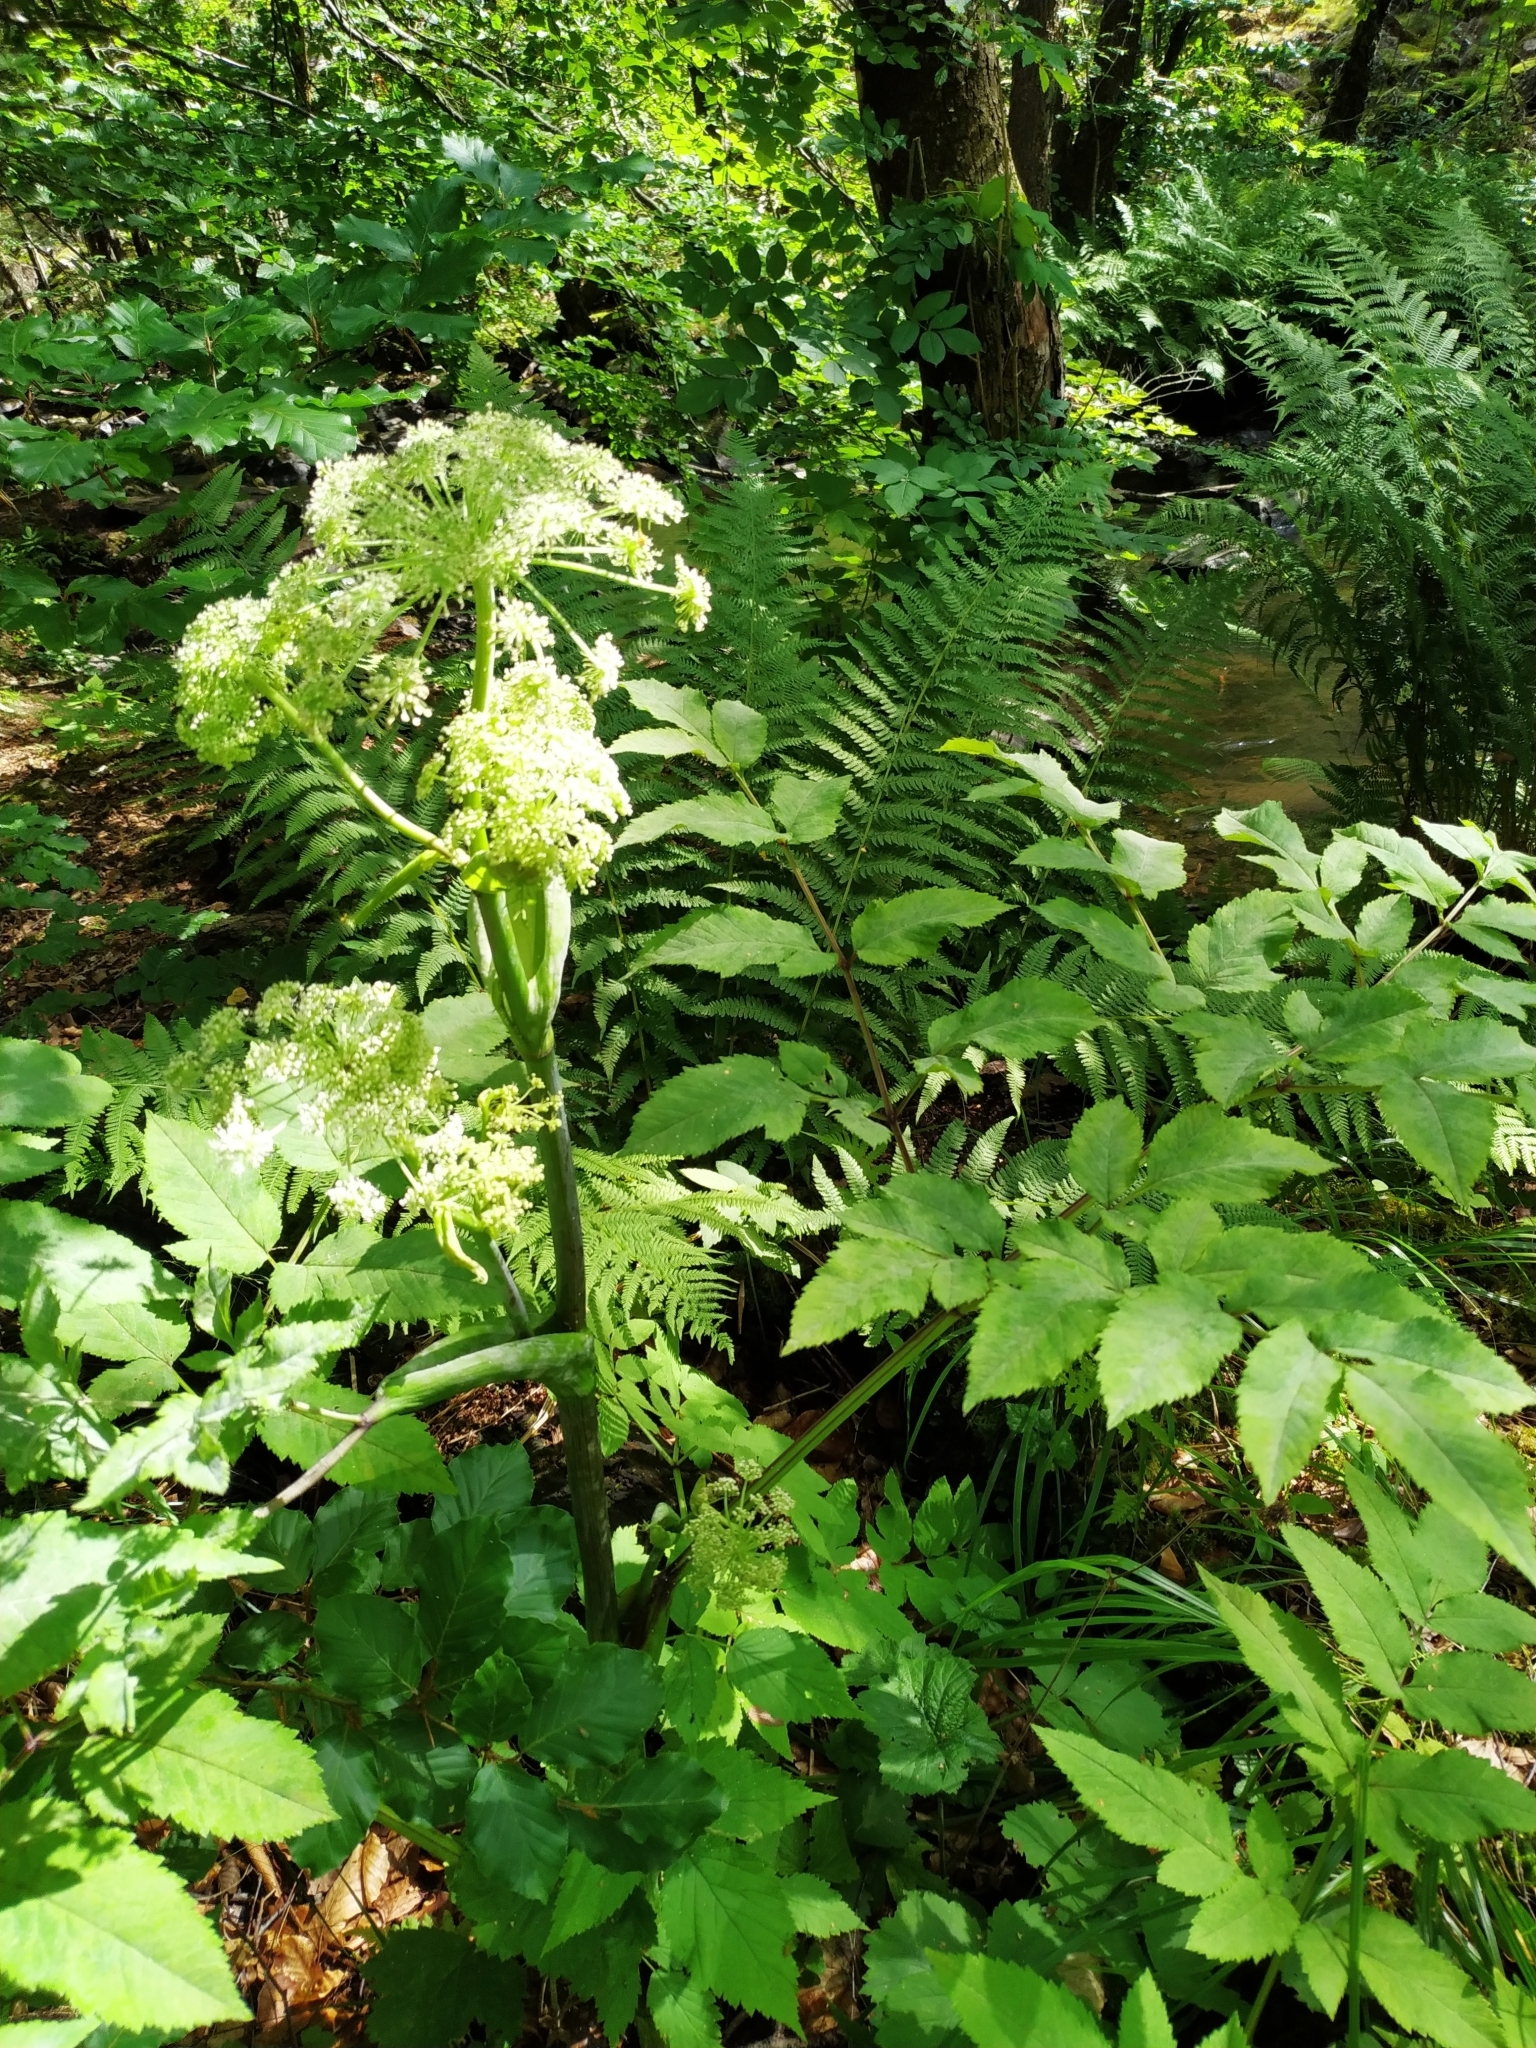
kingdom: Plantae
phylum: Tracheophyta
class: Magnoliopsida
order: Apiales
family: Apiaceae
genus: Angelica
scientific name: Angelica sylvestris
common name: Wild angelica
